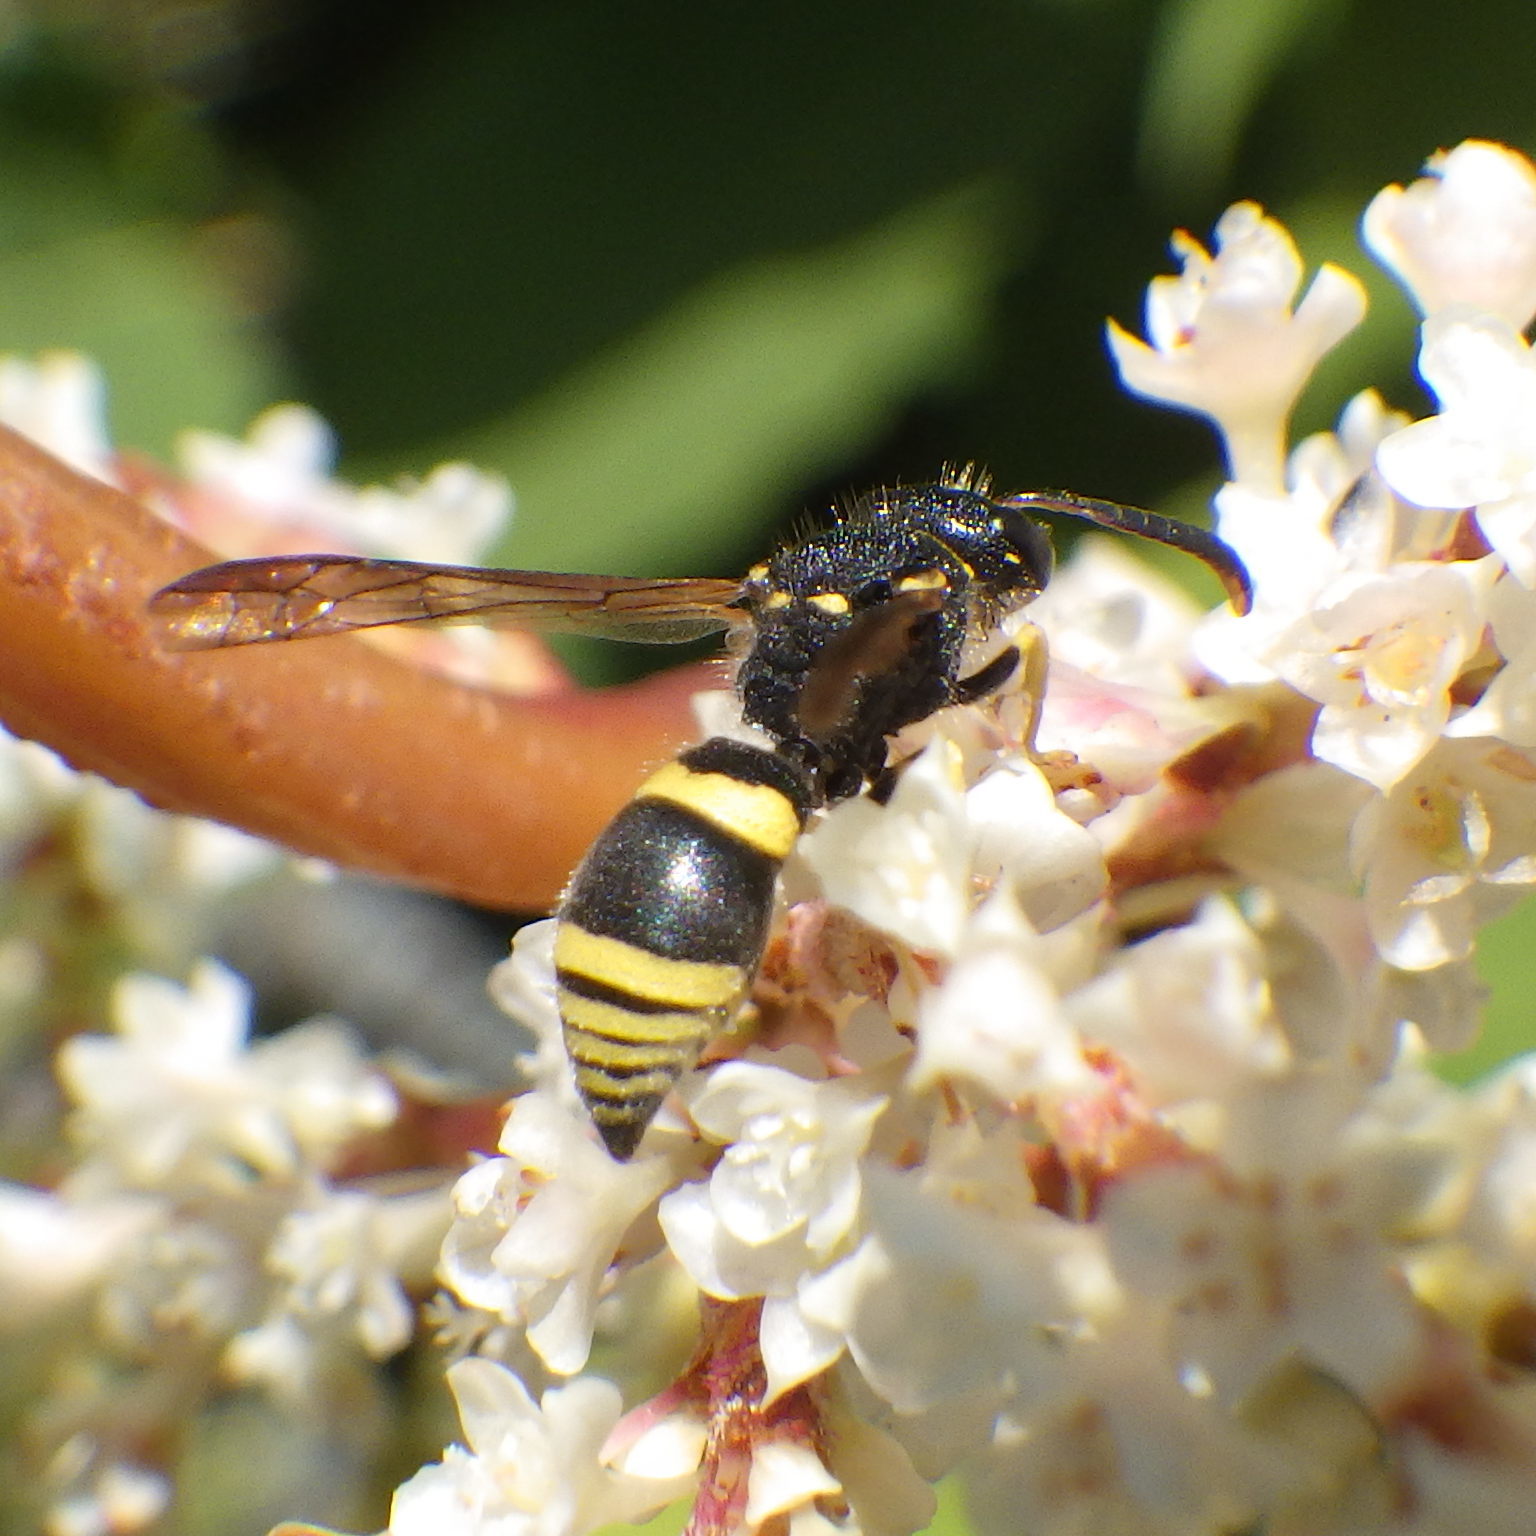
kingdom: Animalia
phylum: Arthropoda
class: Insecta
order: Hymenoptera
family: Vespidae
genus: Ancistrocerus
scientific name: Ancistrocerus parietum
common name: Vespid wasp
